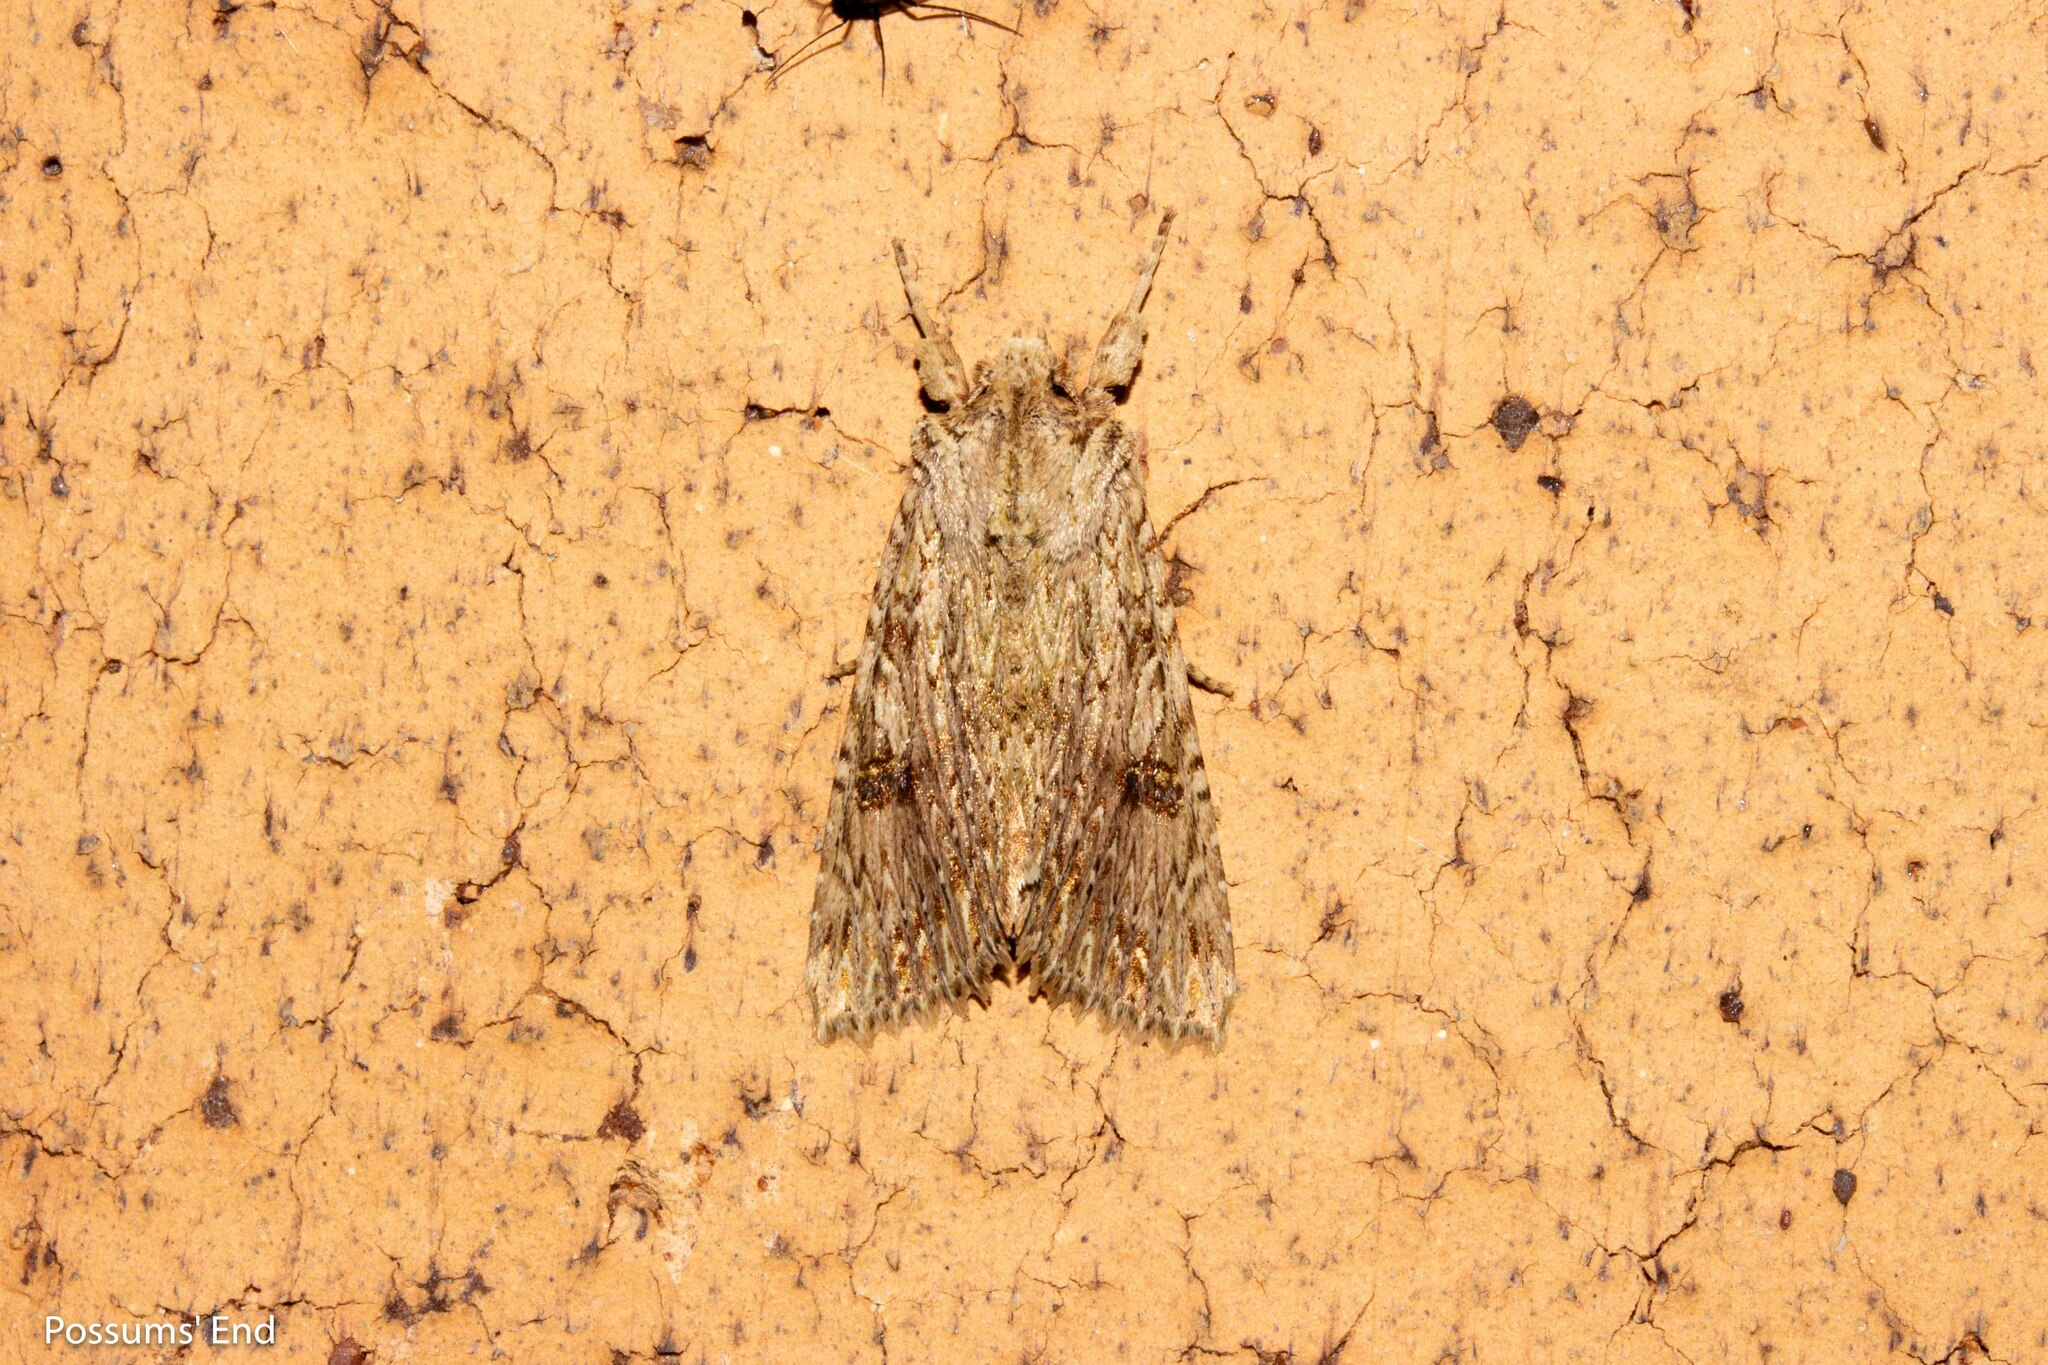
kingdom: Animalia
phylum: Arthropoda
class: Insecta
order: Lepidoptera
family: Noctuidae
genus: Meterana
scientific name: Meterana pansicolor
